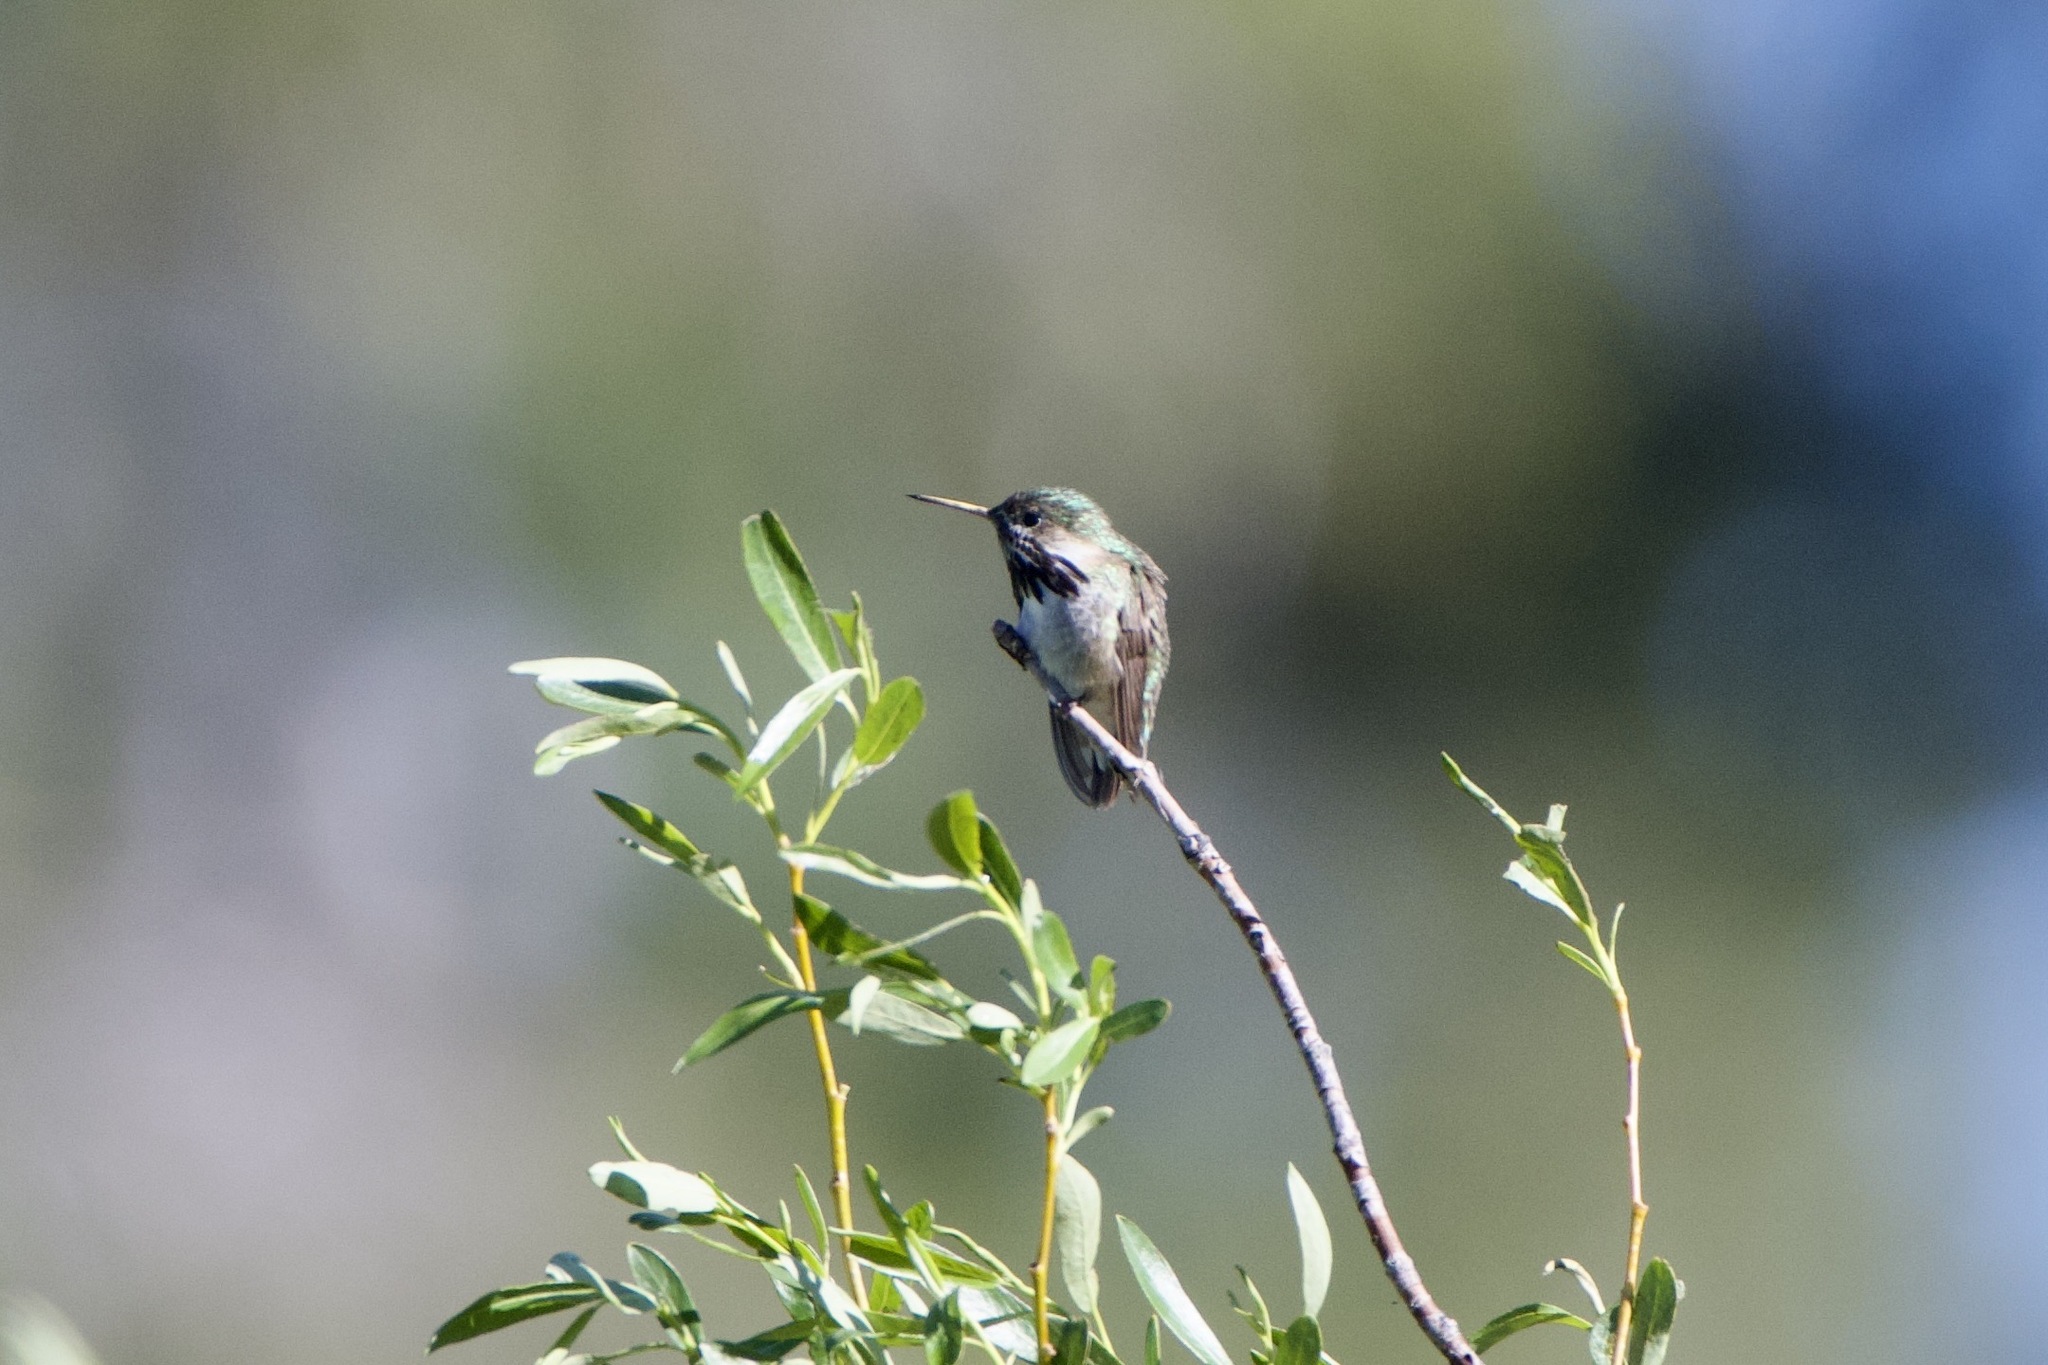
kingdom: Animalia
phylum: Chordata
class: Aves
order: Apodiformes
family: Trochilidae
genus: Selasphorus
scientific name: Selasphorus calliope
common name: Calliope hummingbird
